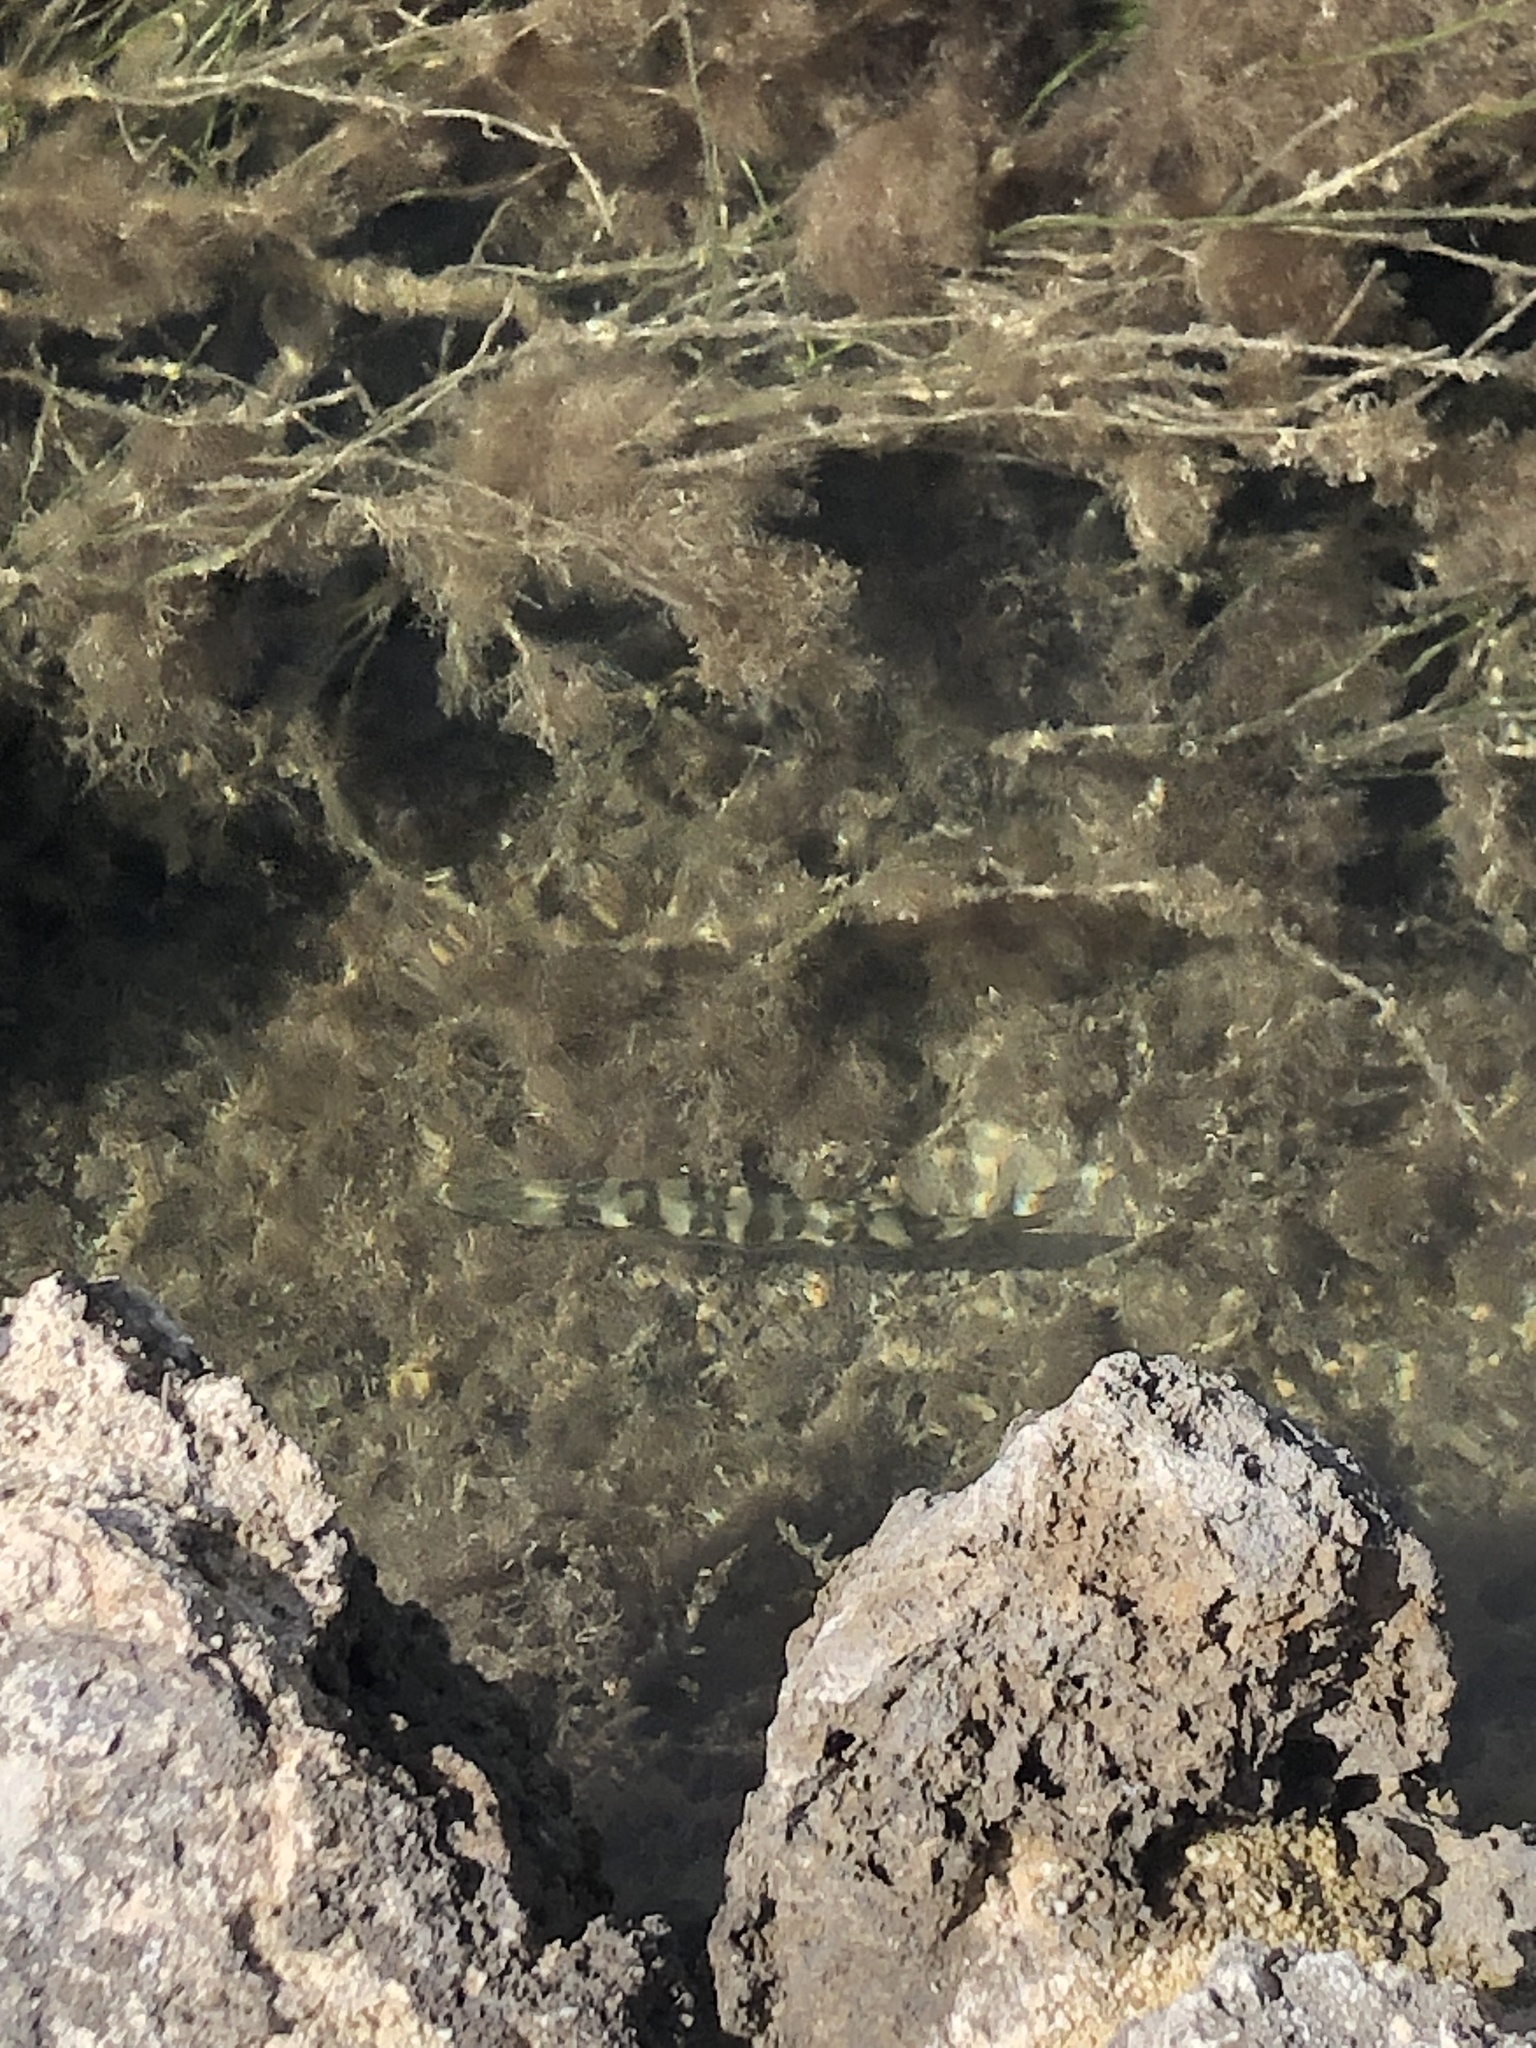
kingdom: Animalia
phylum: Chordata
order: Perciformes
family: Sphyraenidae
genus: Sphyraena
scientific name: Sphyraena barracuda
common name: Great barracuda
